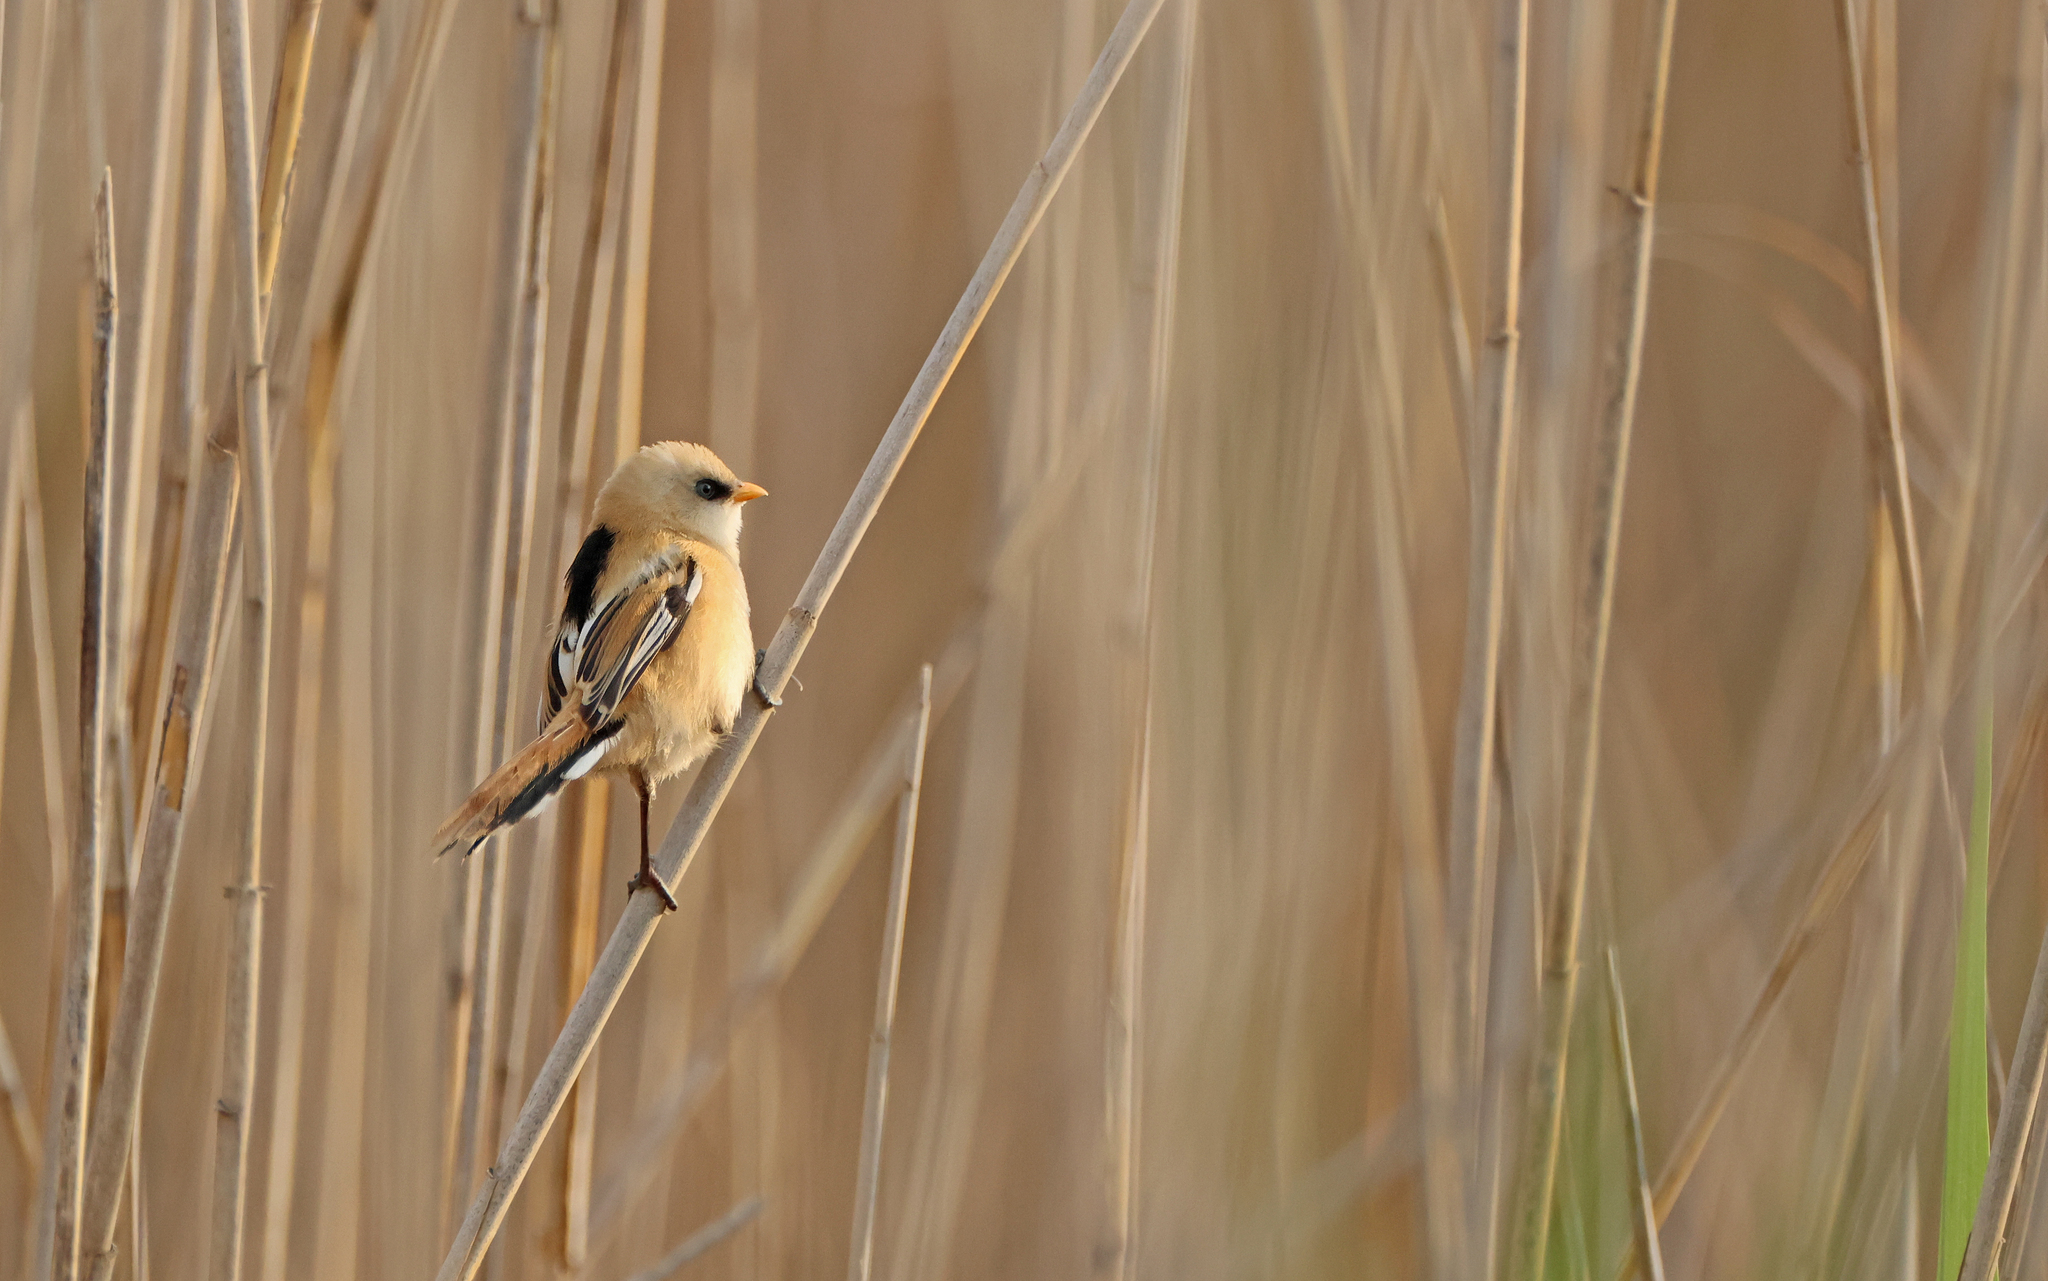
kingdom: Animalia
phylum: Chordata
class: Aves
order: Passeriformes
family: Panuridae
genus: Panurus
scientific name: Panurus biarmicus
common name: Bearded reedling
